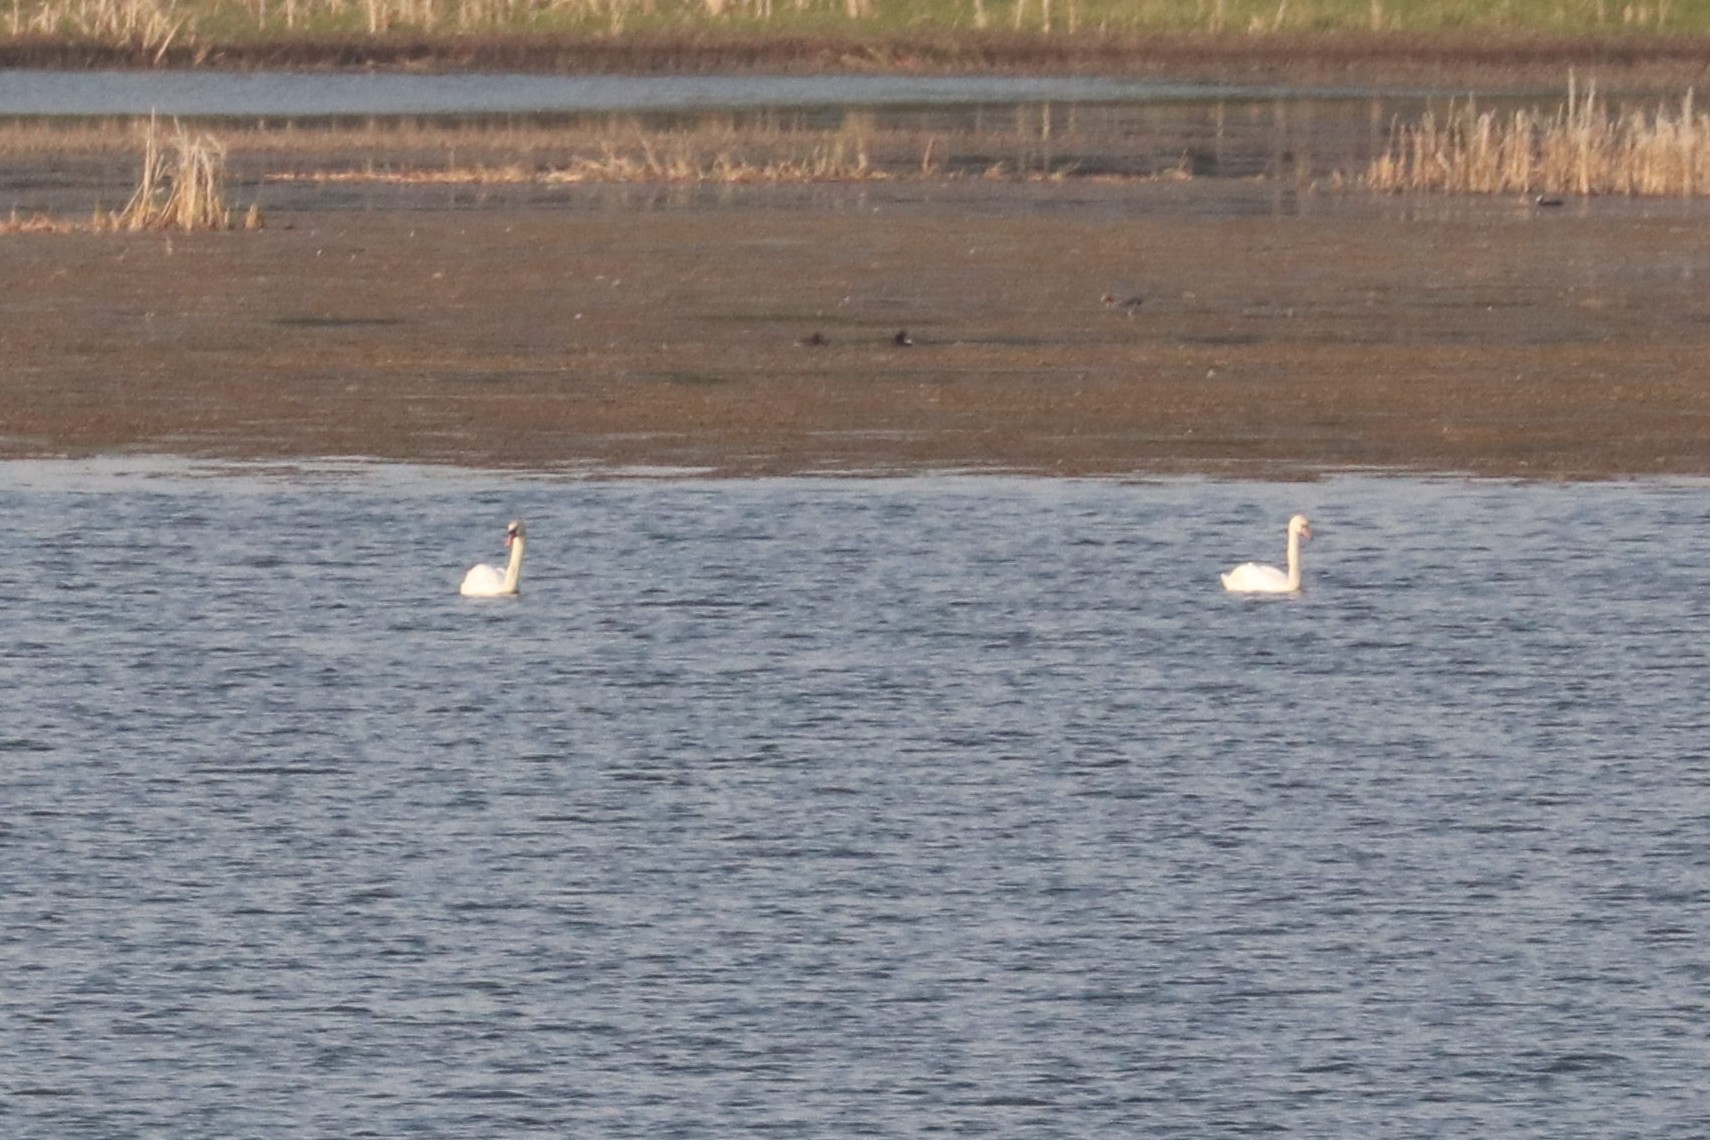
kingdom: Animalia
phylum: Chordata
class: Aves
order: Anseriformes
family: Anatidae
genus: Cygnus
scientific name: Cygnus olor
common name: Mute swan
